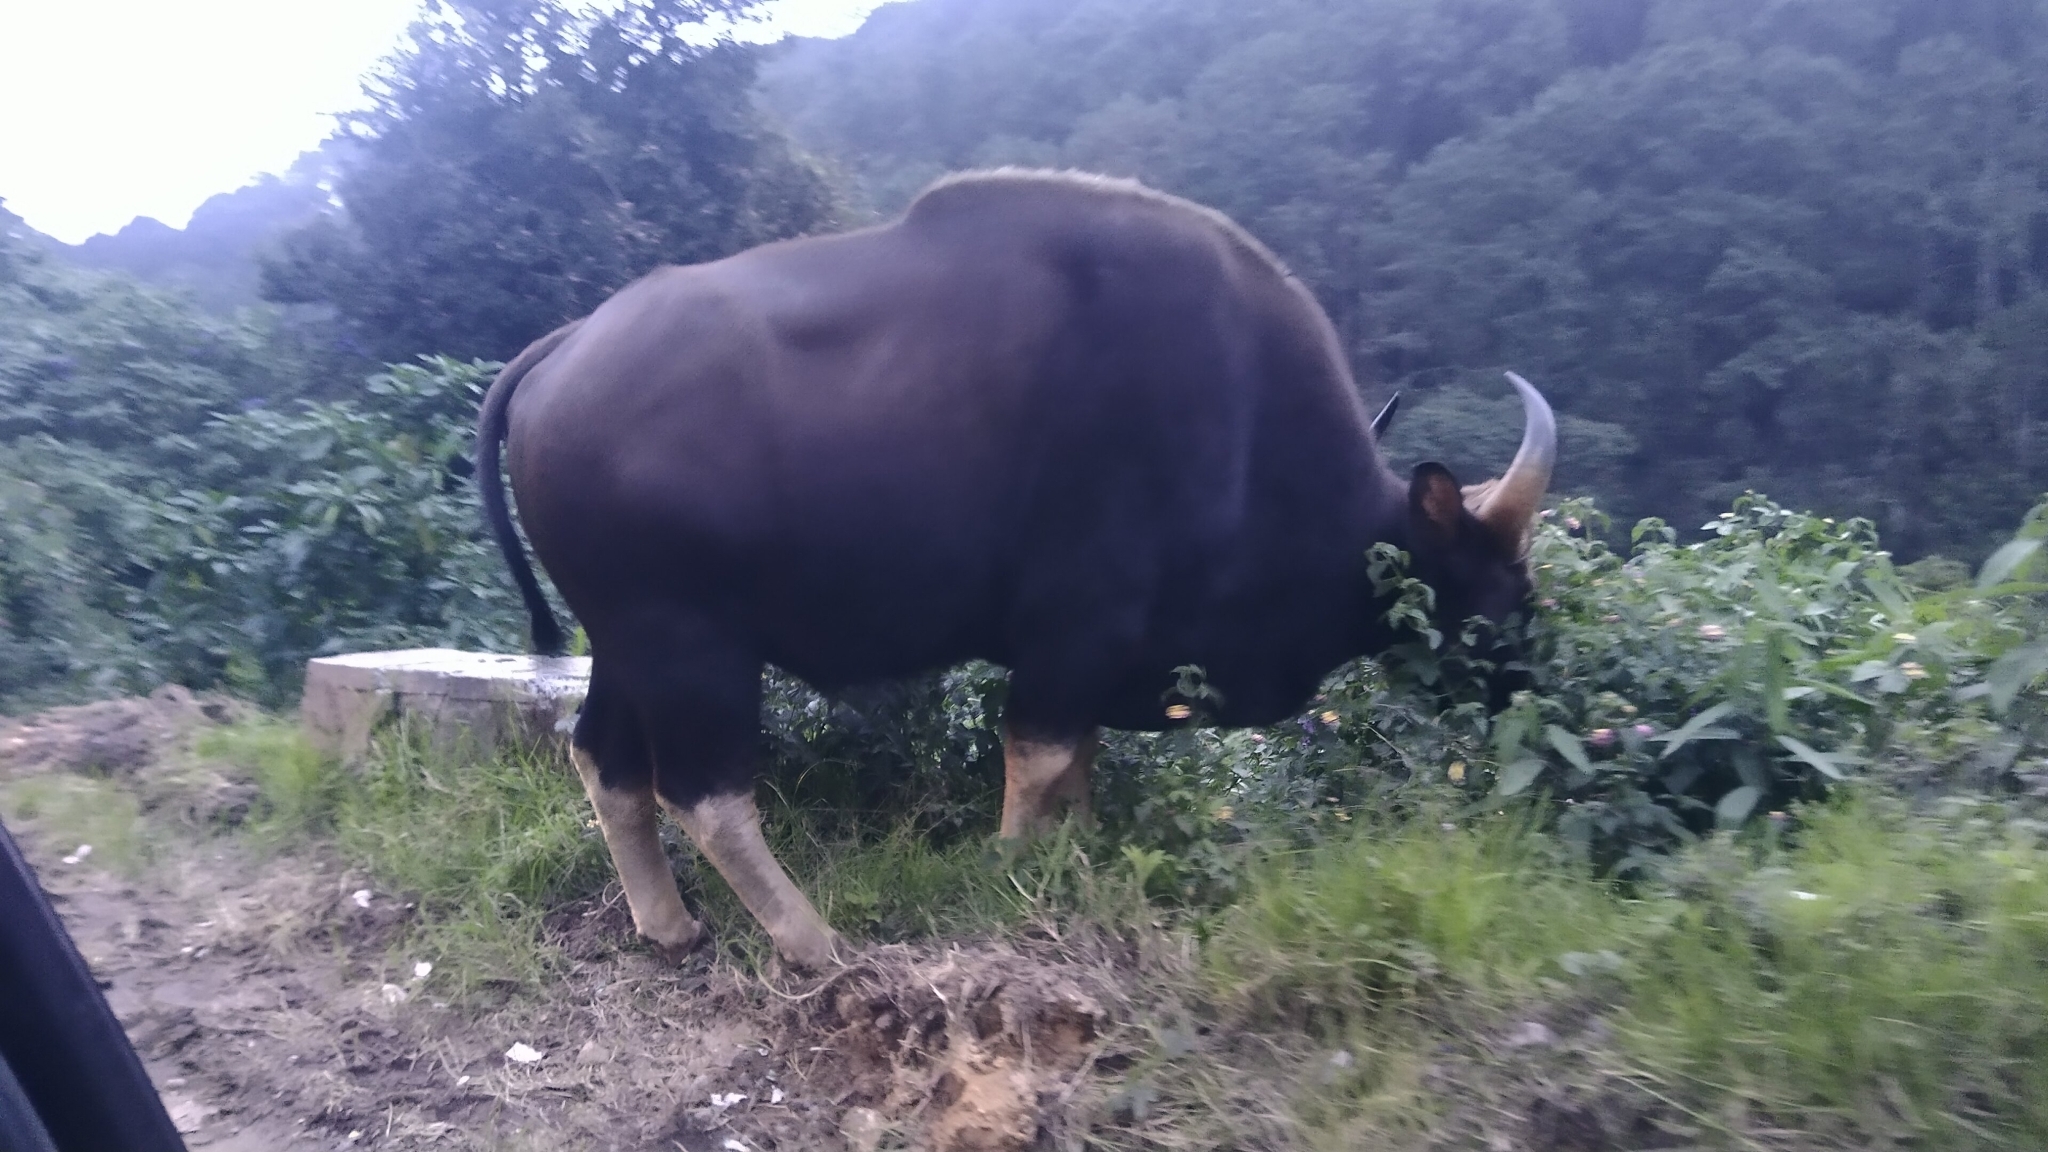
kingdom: Animalia
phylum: Chordata
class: Mammalia
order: Artiodactyla
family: Bovidae
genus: Bos
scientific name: Bos frontalis
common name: Gaur
